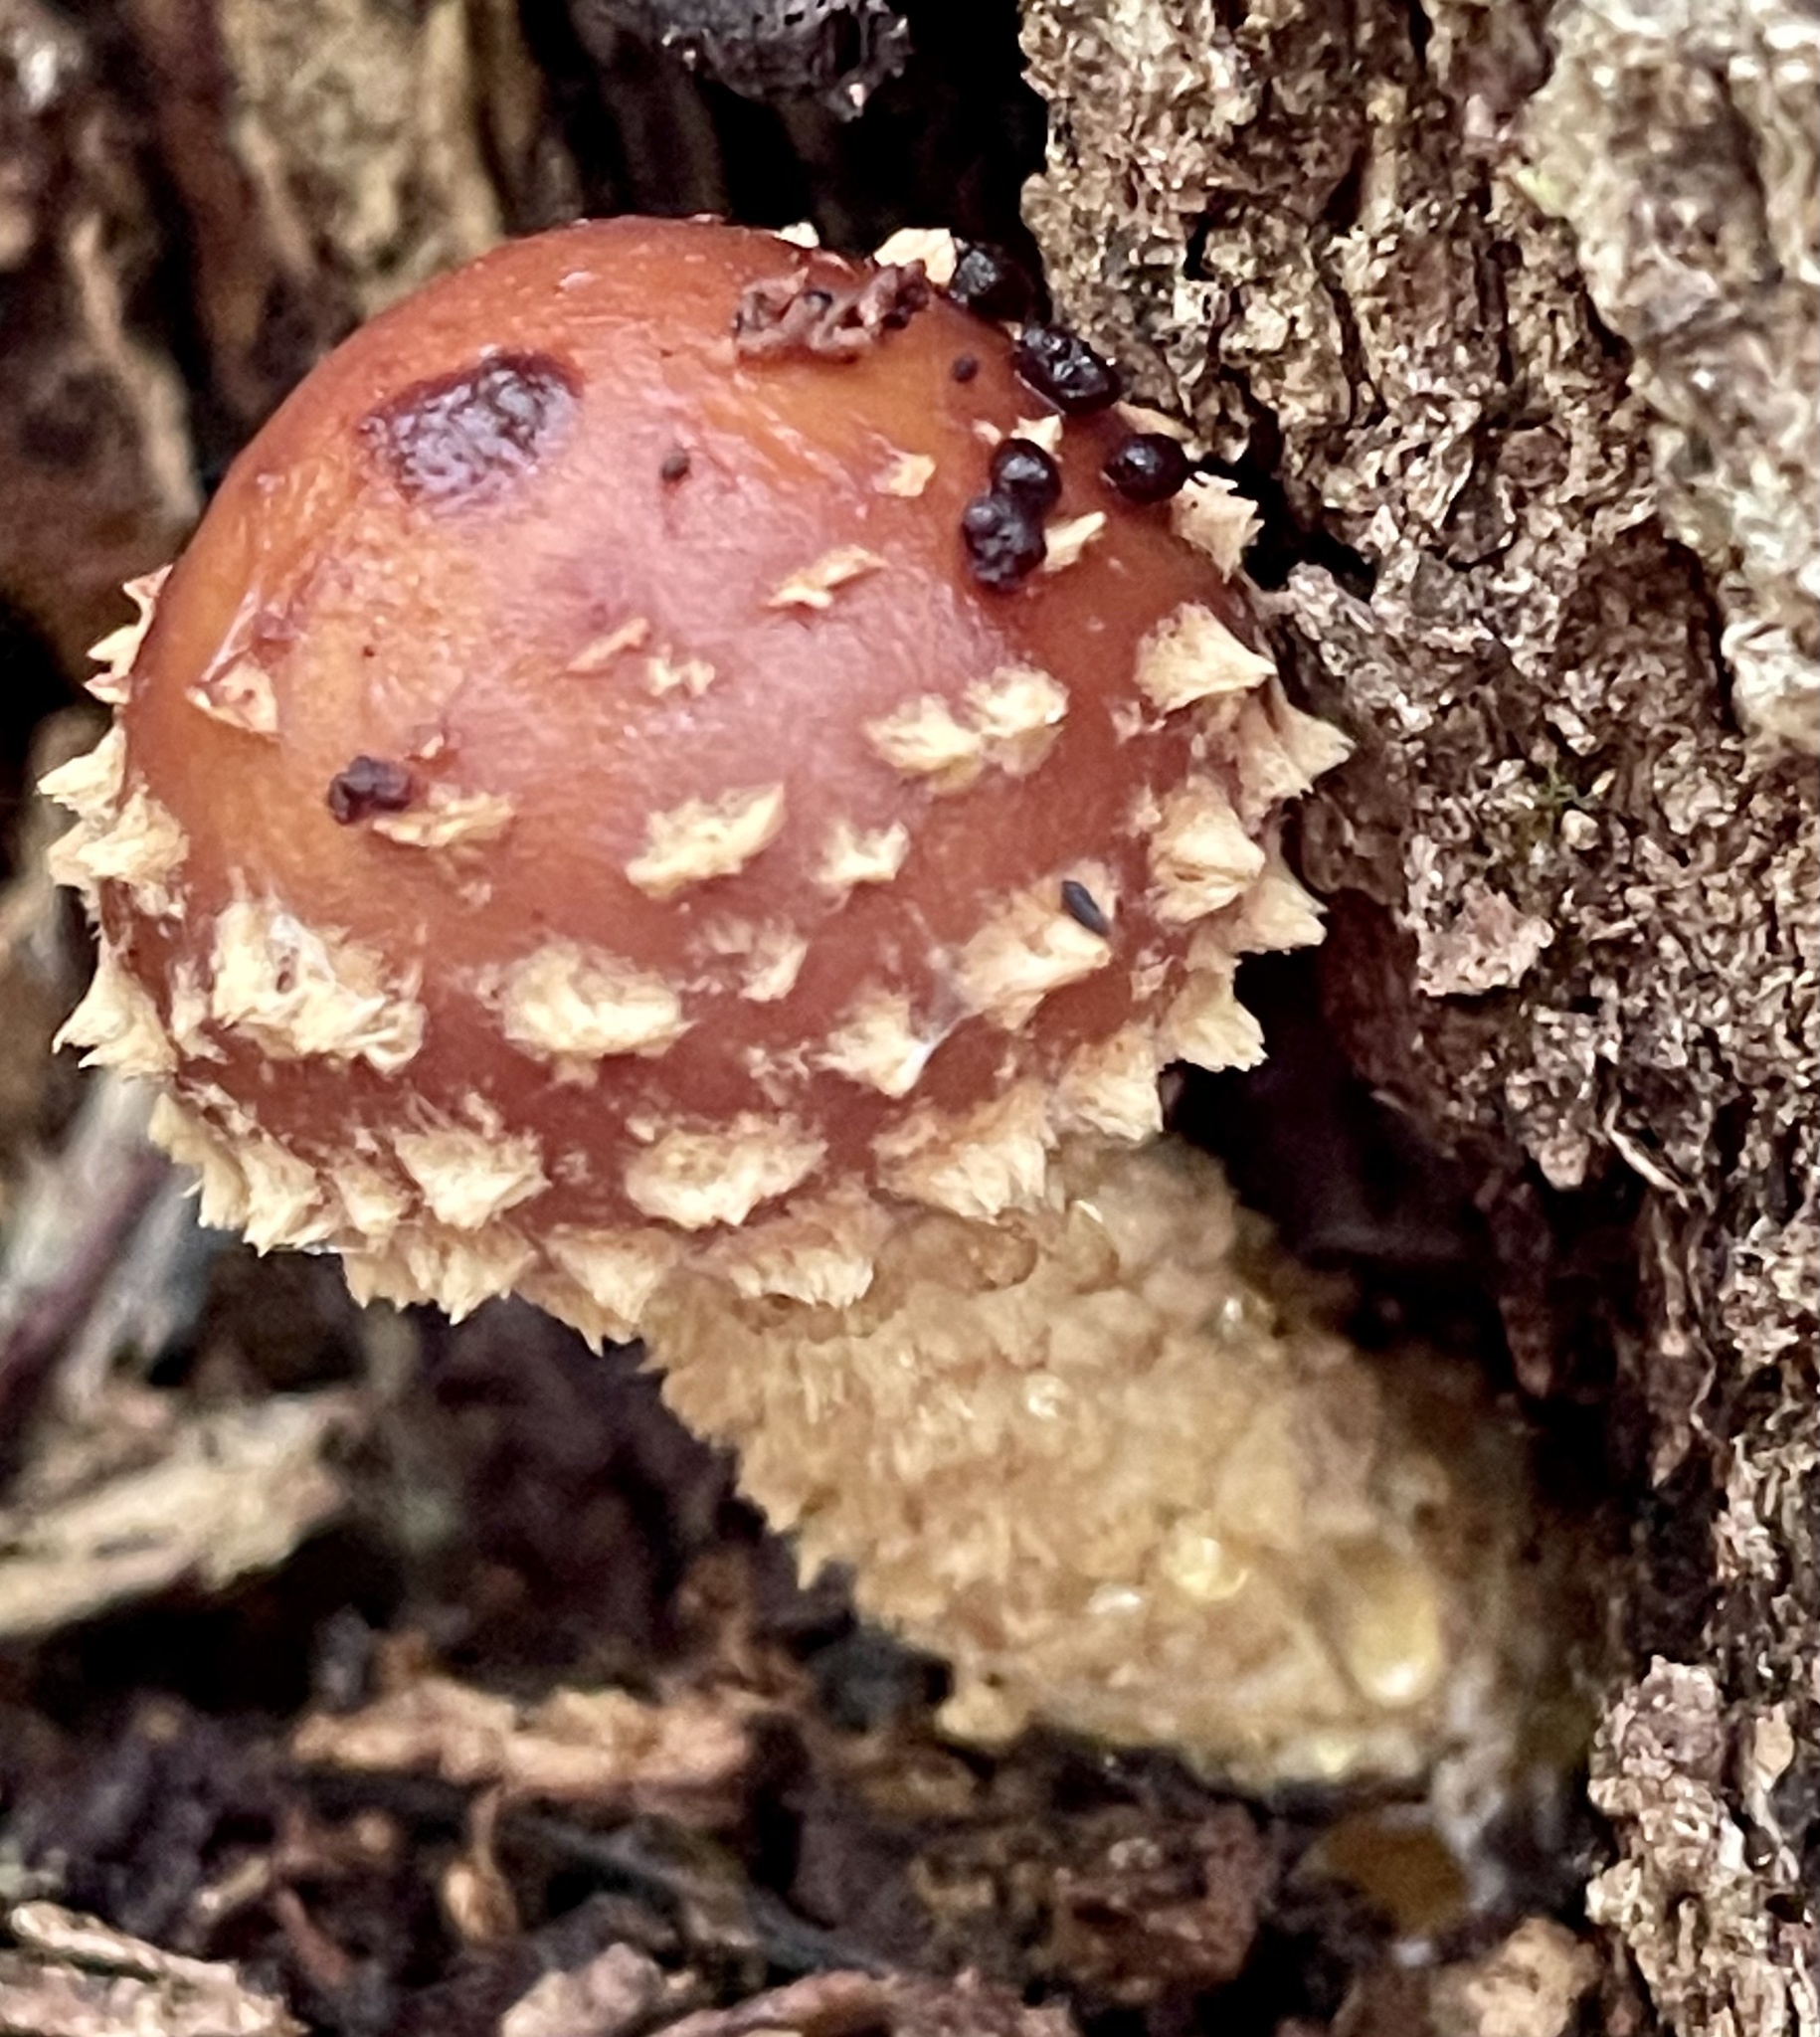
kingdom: Fungi
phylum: Basidiomycota
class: Agaricomycetes
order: Agaricales
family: Tubariaceae
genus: Hemistropharia
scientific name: Hemistropharia albocrenulata
